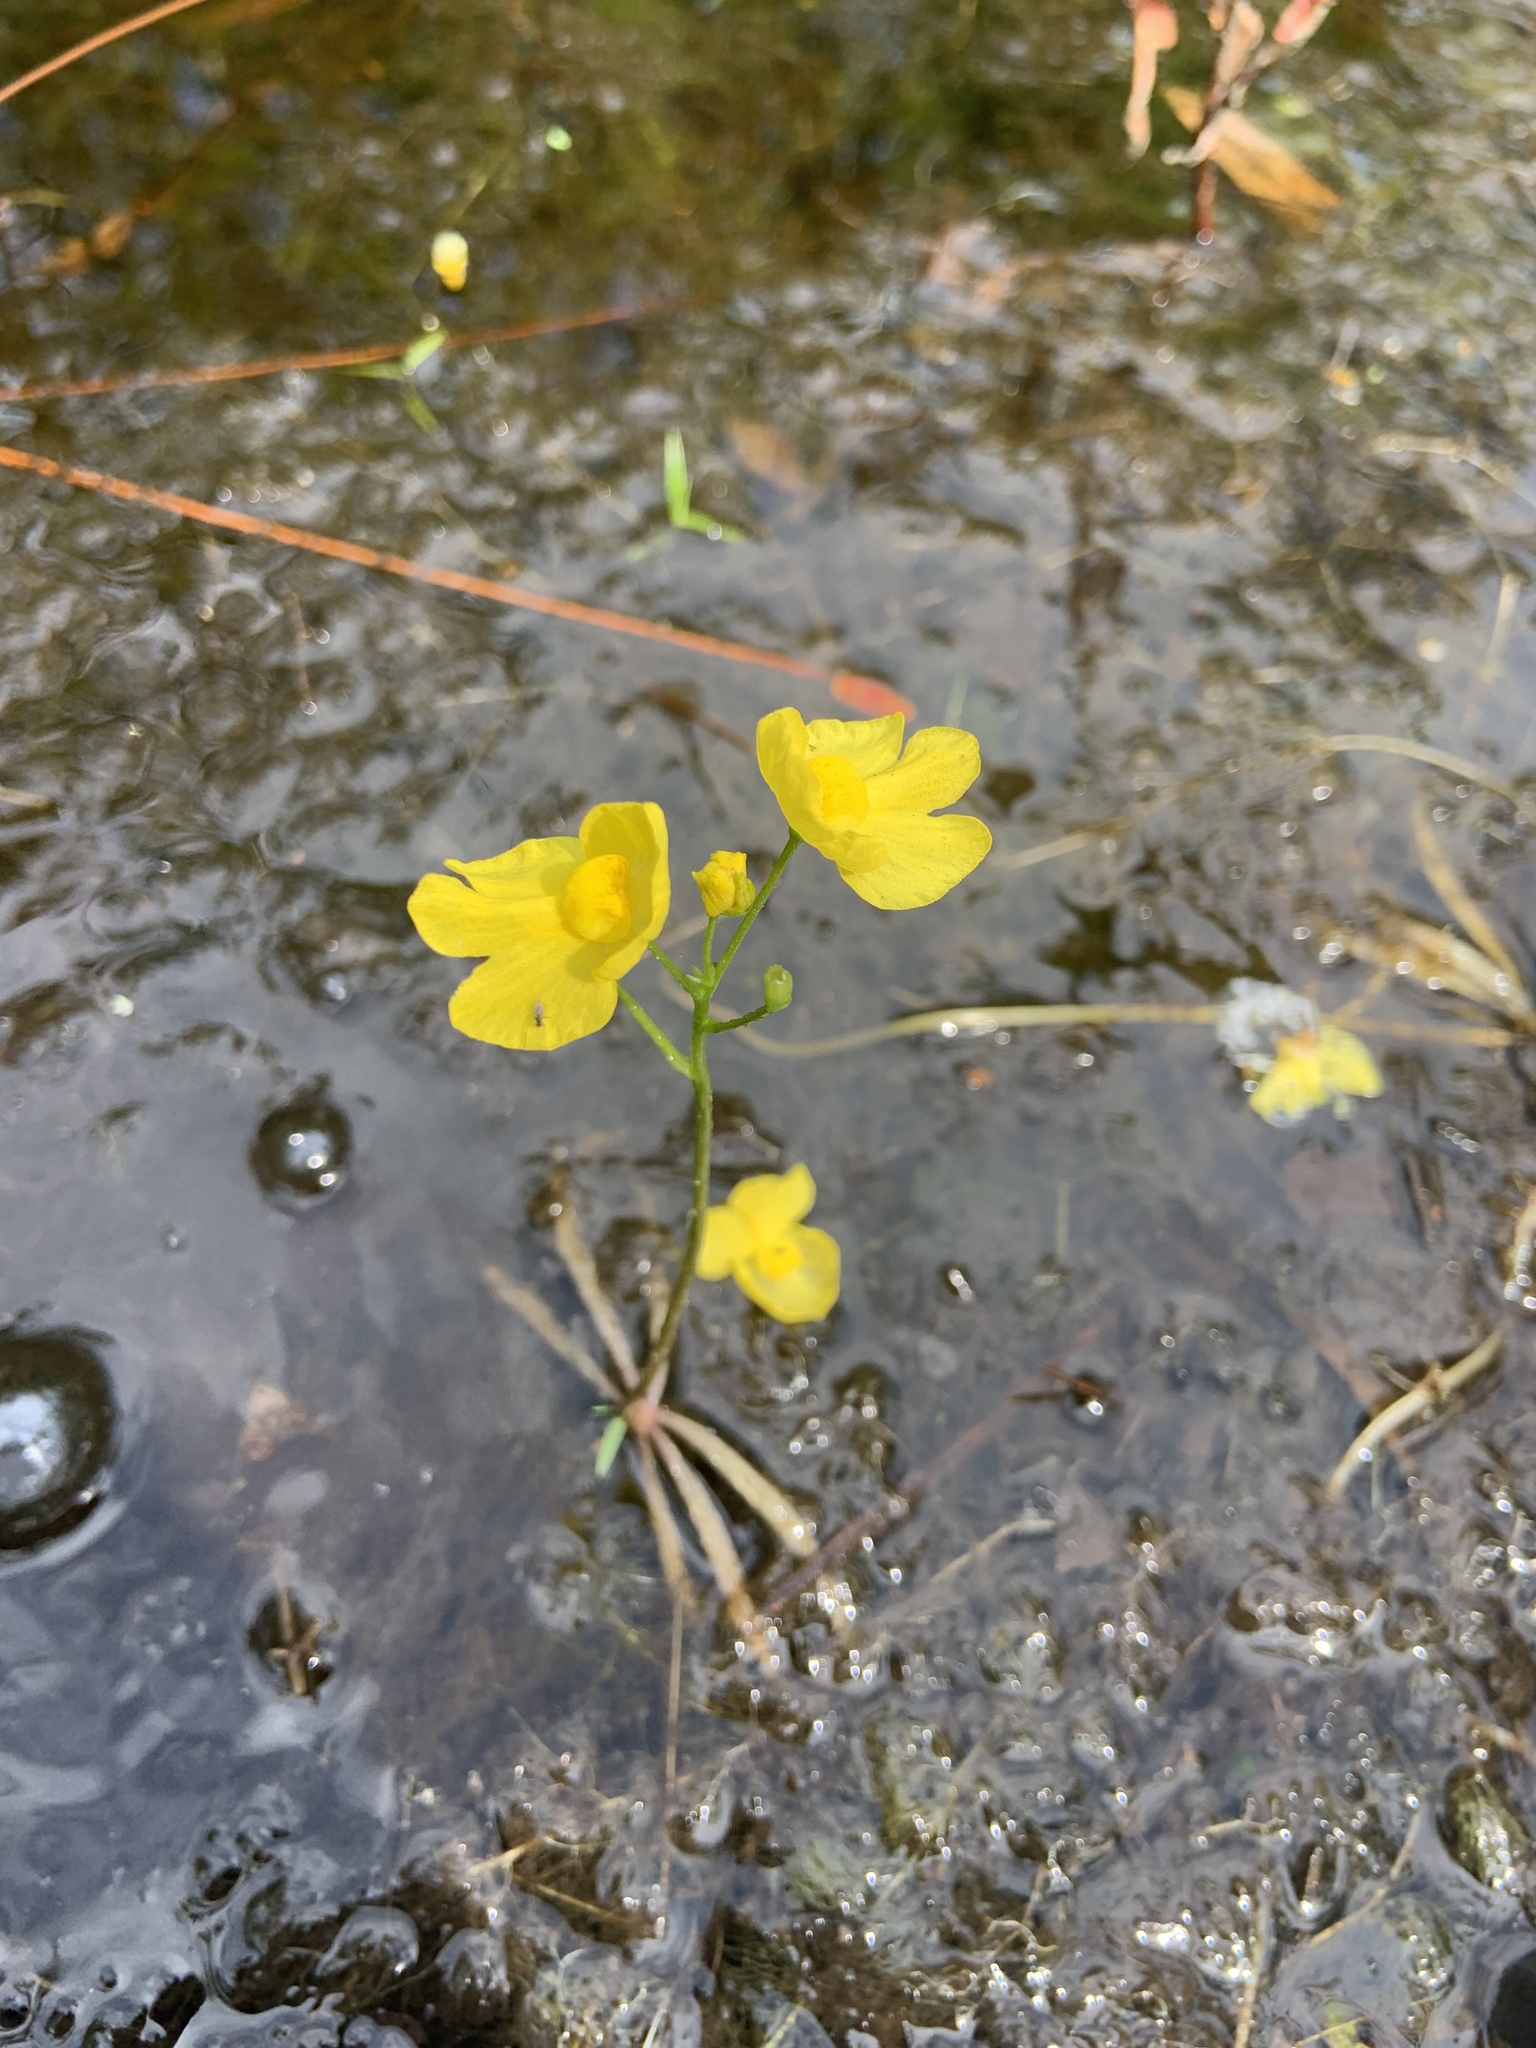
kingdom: Plantae
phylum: Tracheophyta
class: Magnoliopsida
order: Lamiales
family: Lentibulariaceae
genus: Utricularia
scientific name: Utricularia inflata
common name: Floating bladderwort
